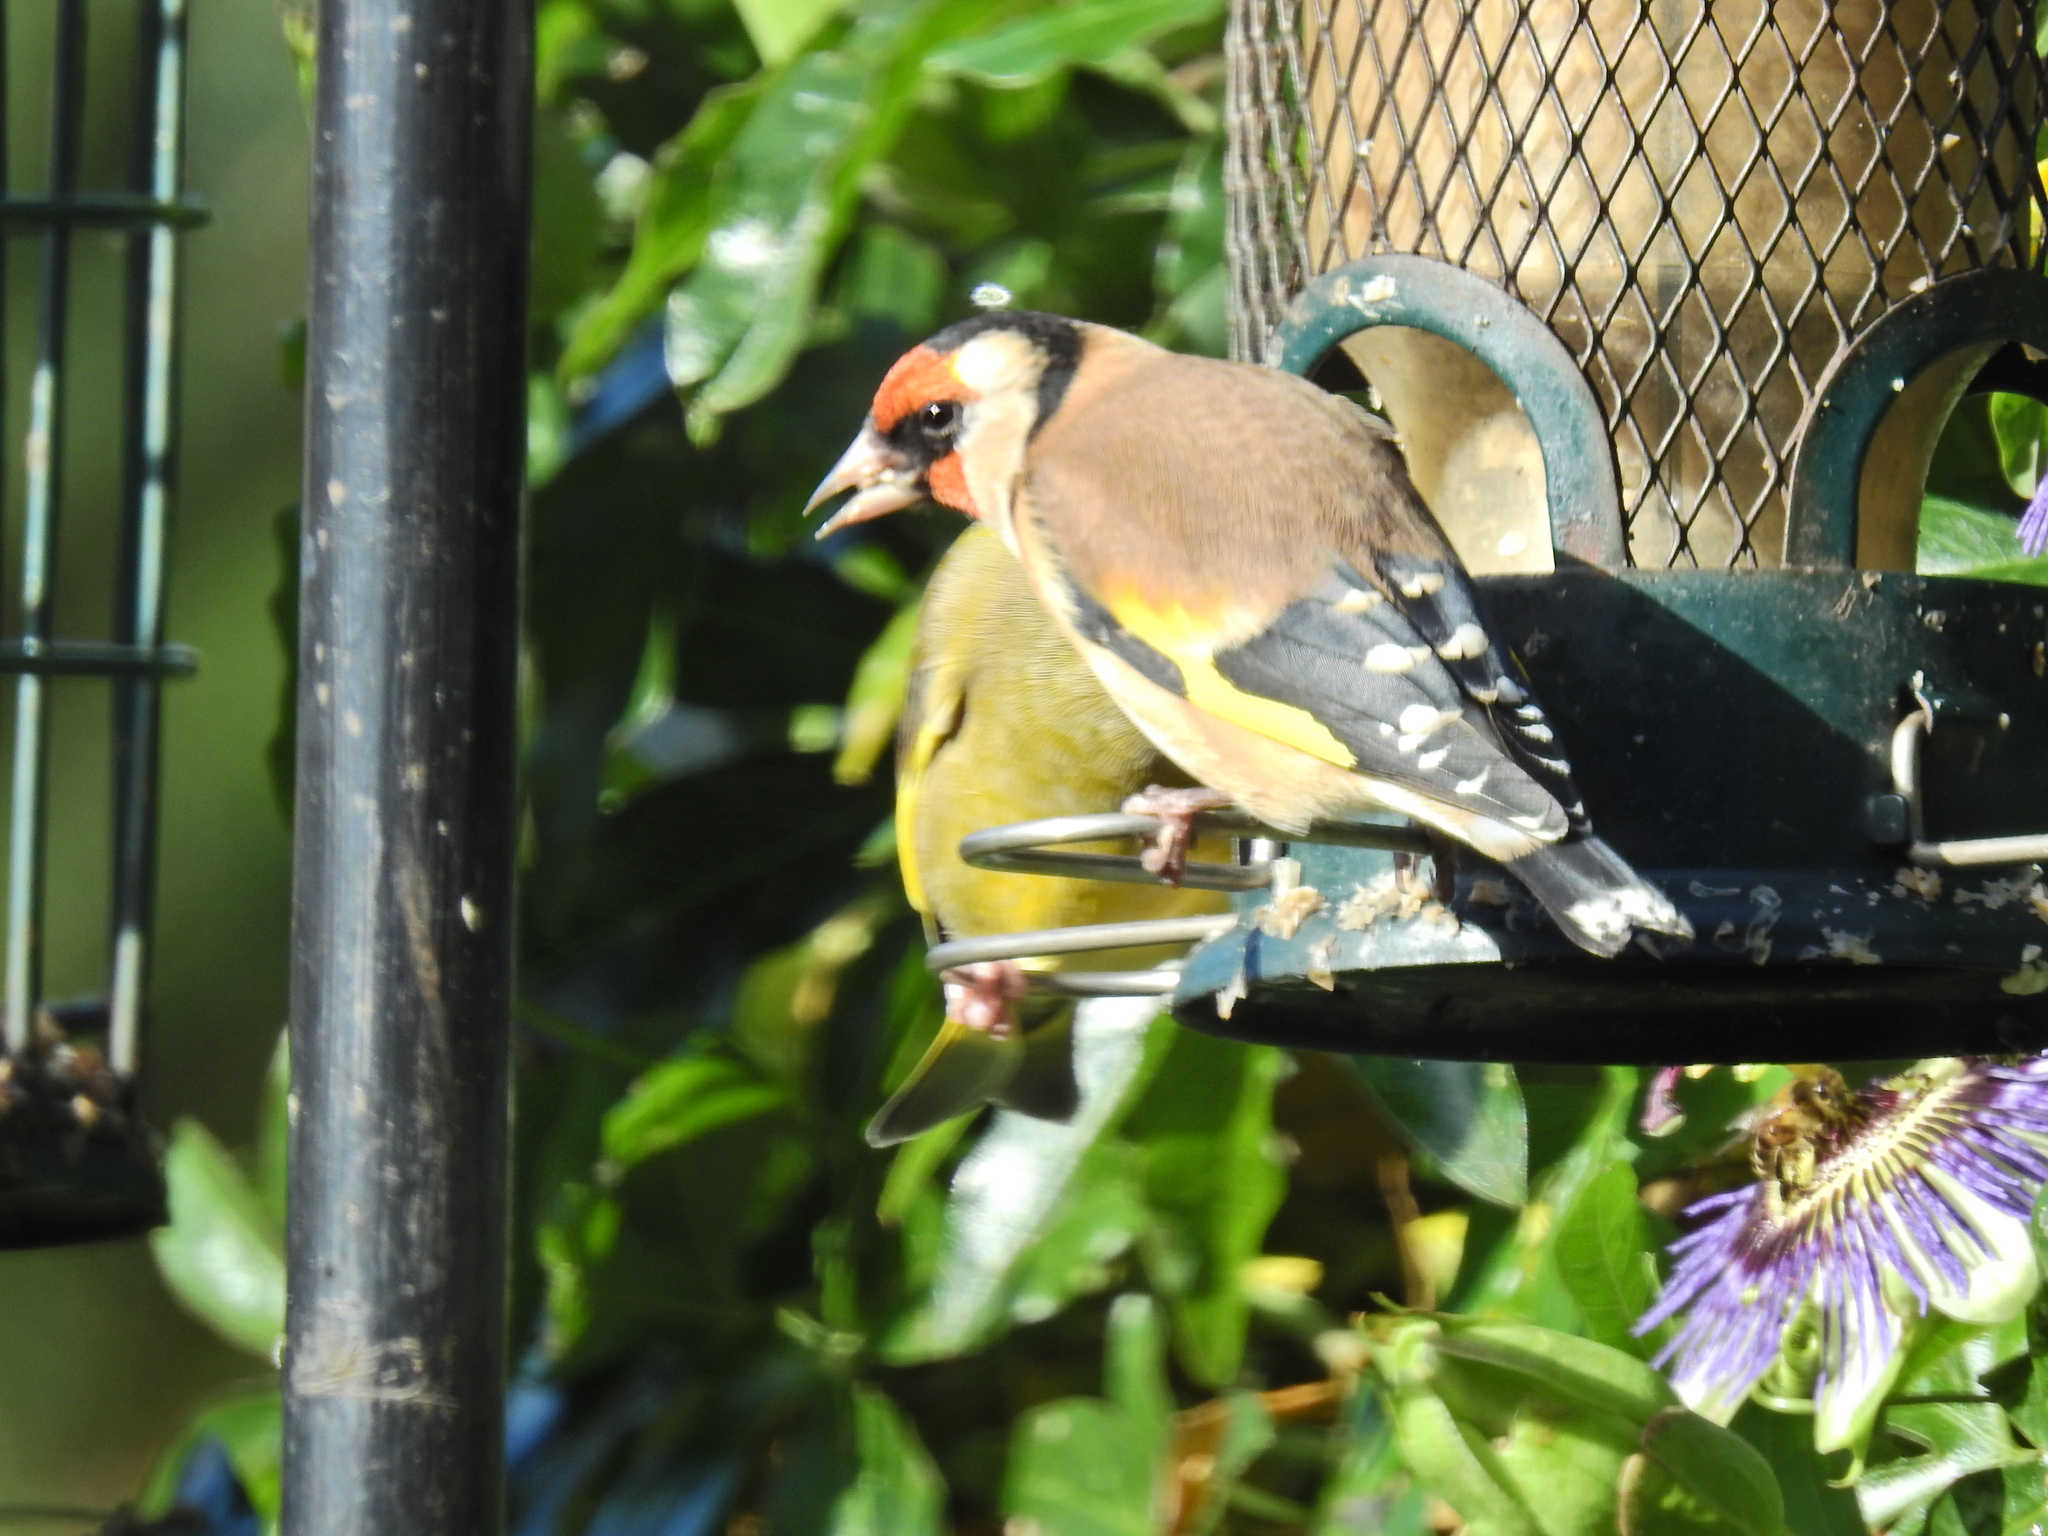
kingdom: Animalia
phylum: Chordata
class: Aves
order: Passeriformes
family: Fringillidae
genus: Carduelis
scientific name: Carduelis carduelis
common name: European goldfinch
